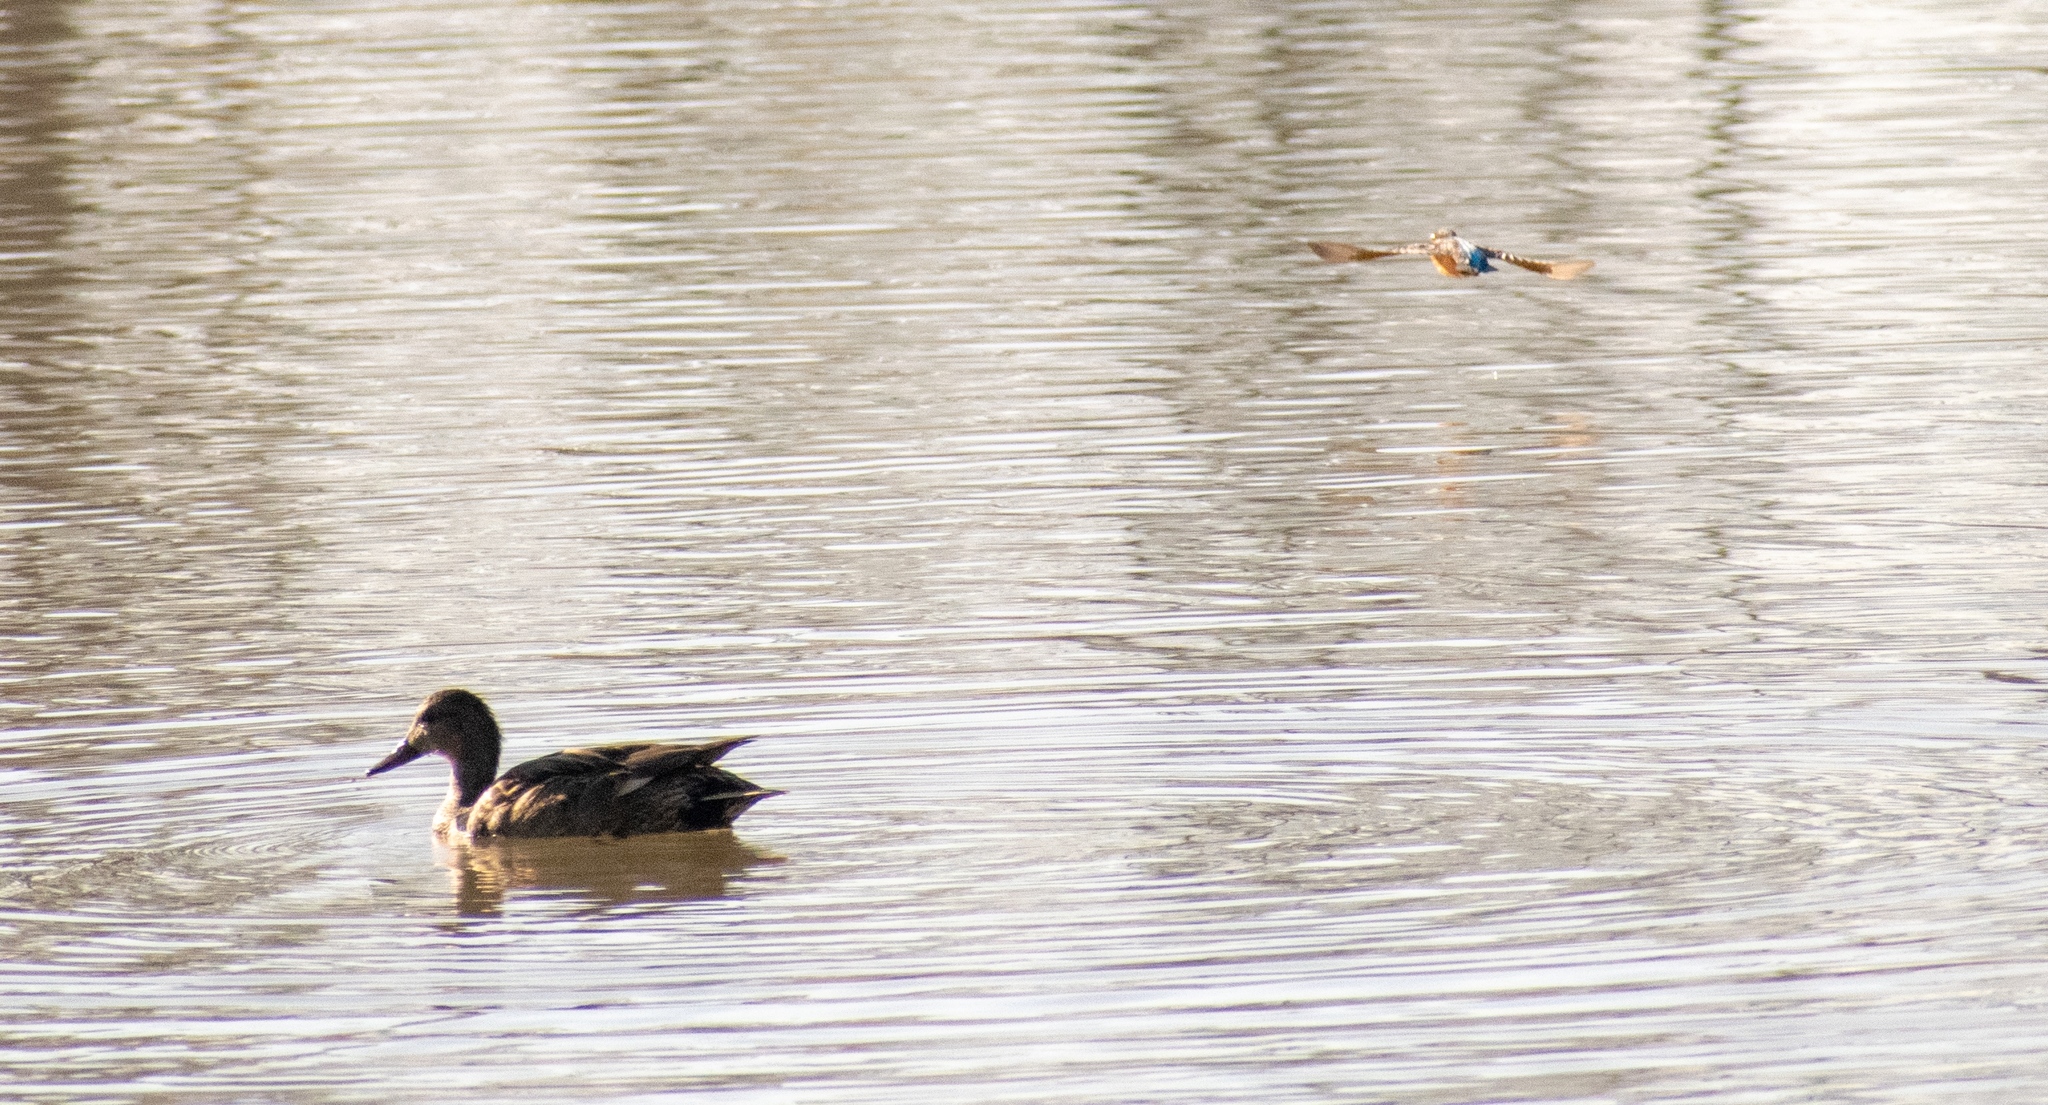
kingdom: Animalia
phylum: Chordata
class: Aves
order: Coraciiformes
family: Alcedinidae
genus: Alcedo
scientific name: Alcedo atthis
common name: Common kingfisher
